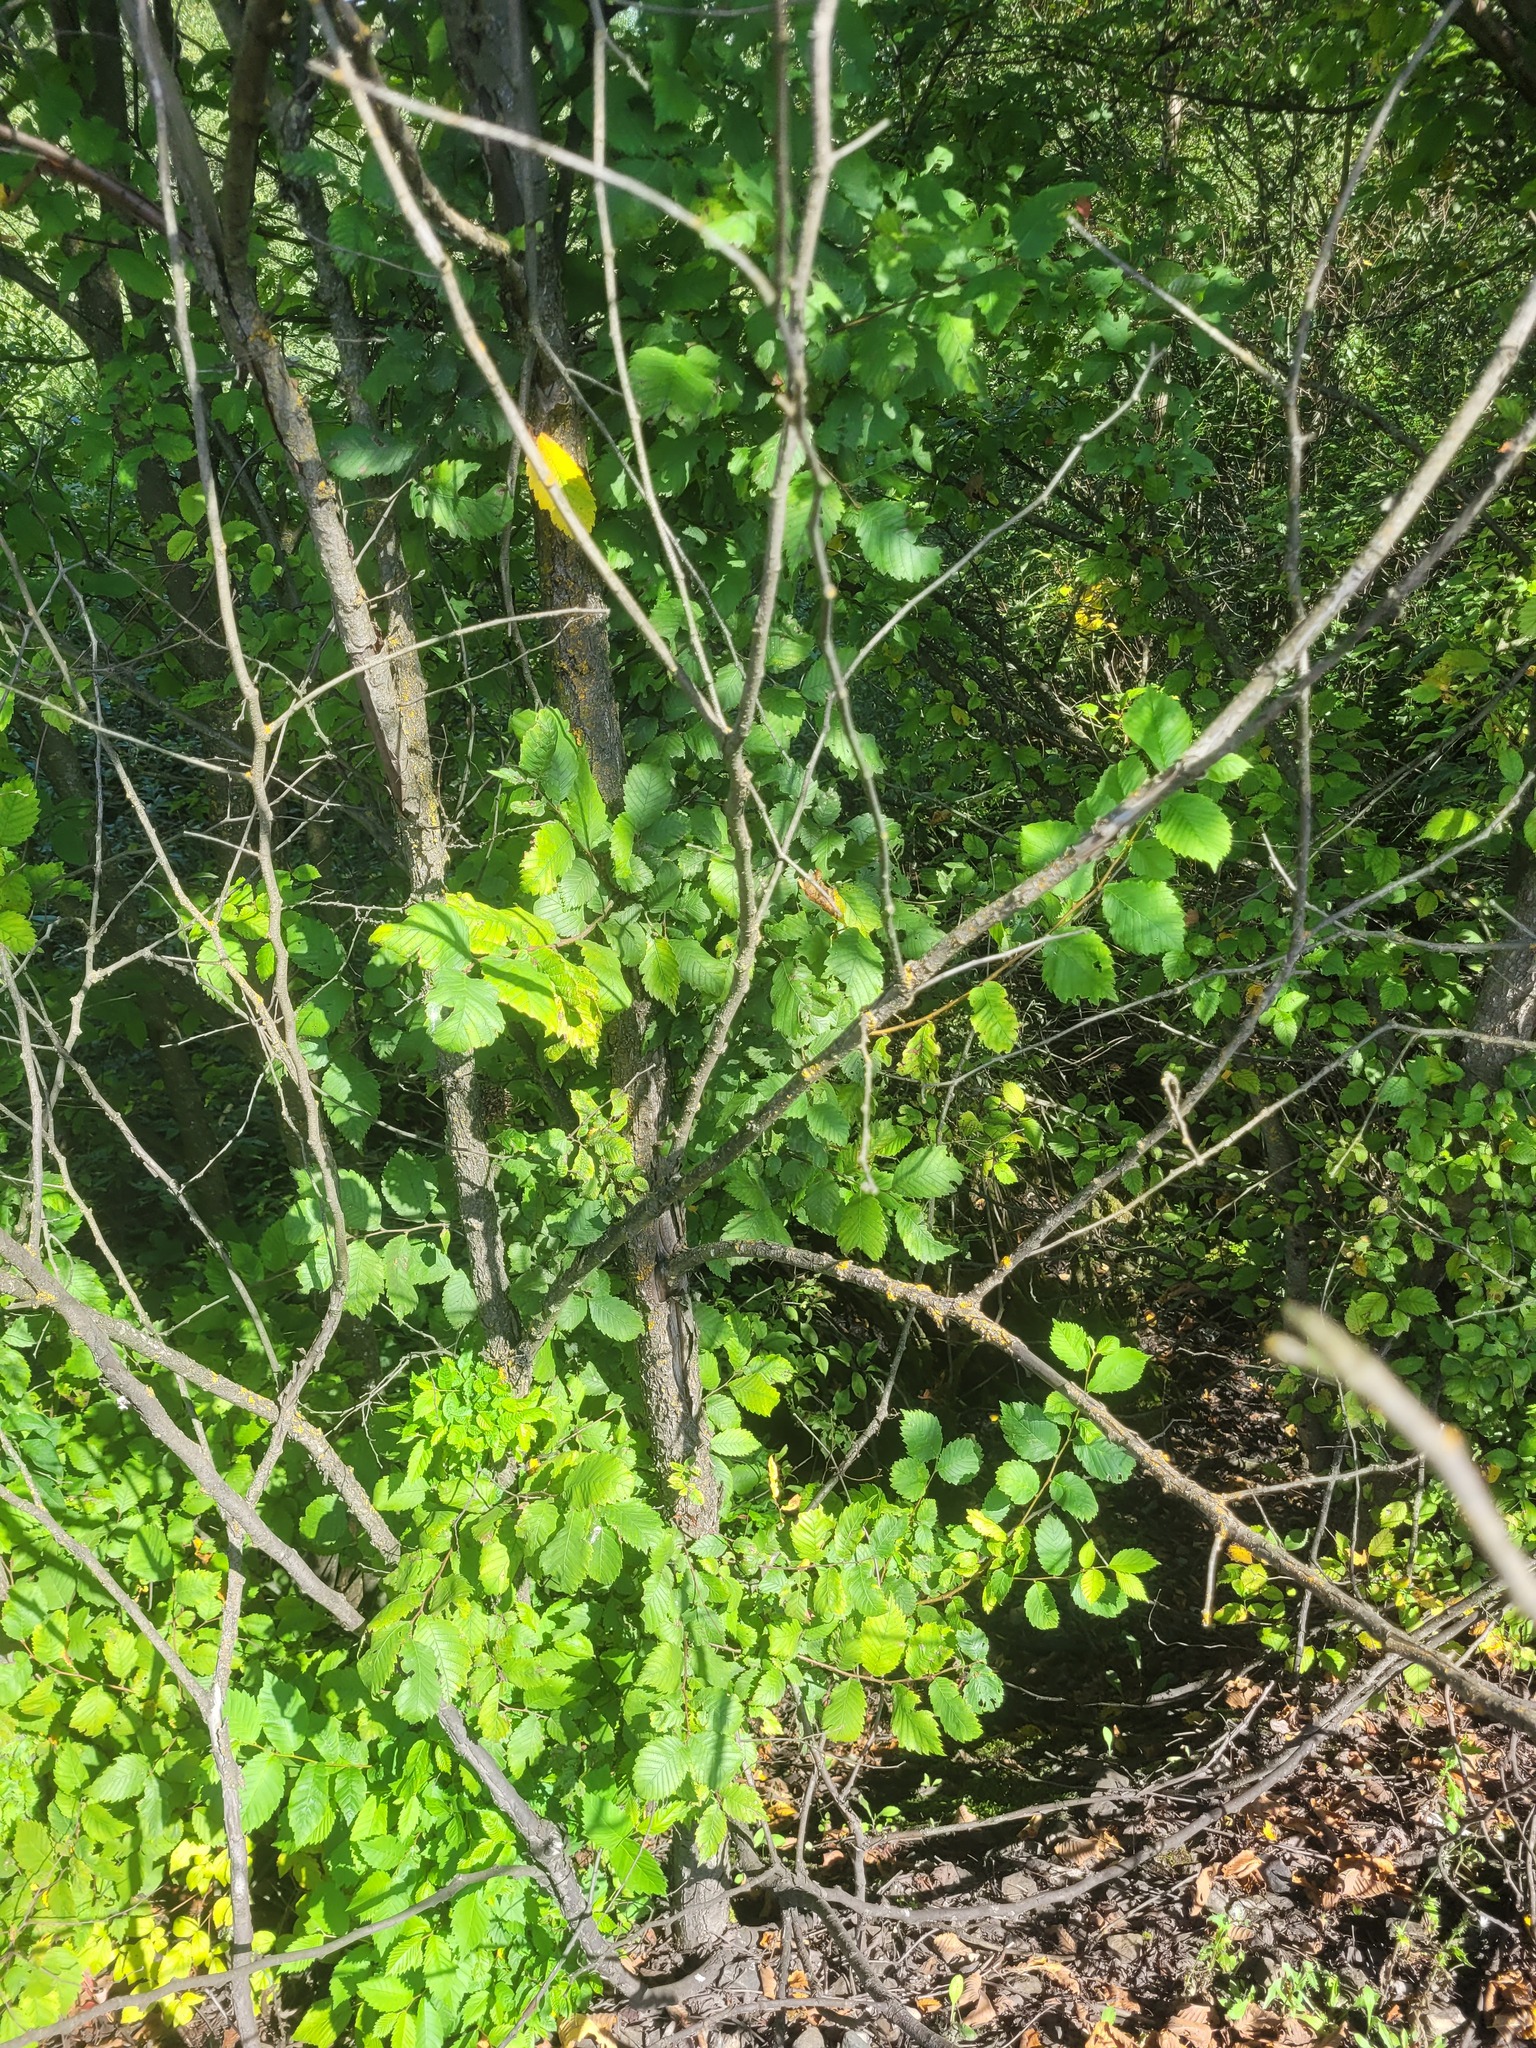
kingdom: Plantae
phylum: Tracheophyta
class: Magnoliopsida
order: Rosales
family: Ulmaceae
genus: Ulmus
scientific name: Ulmus laevis
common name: European white-elm
